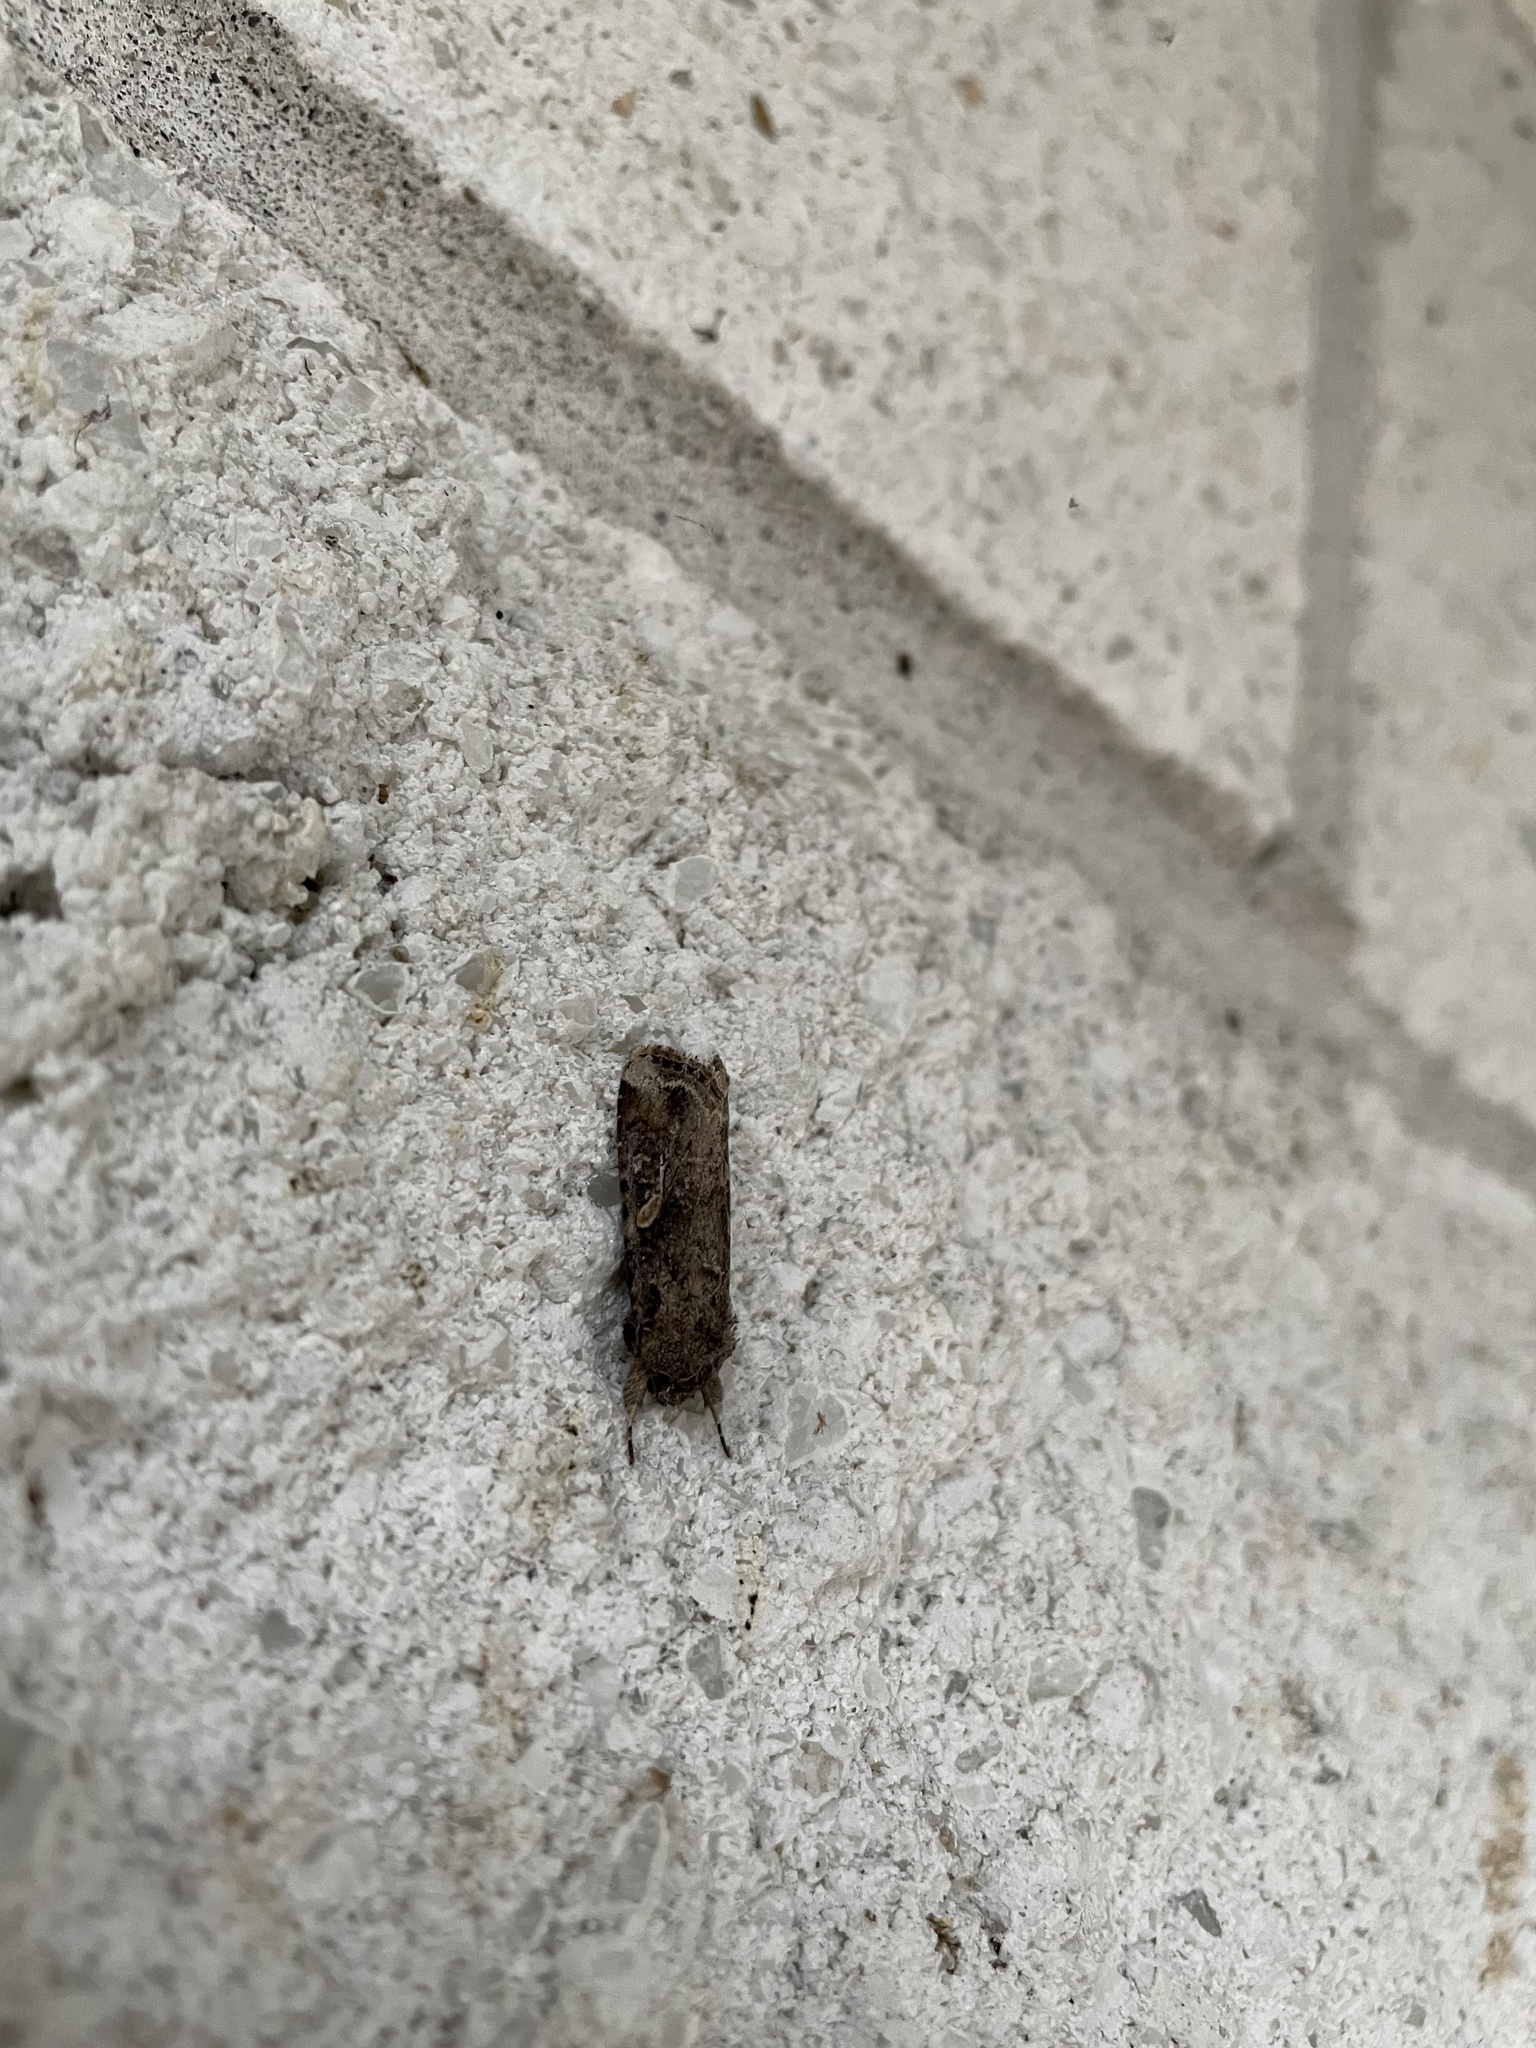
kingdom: Animalia
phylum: Arthropoda
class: Insecta
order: Lepidoptera
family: Noctuidae
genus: Spodoptera
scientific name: Spodoptera frugiperda
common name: Fall armyworm
